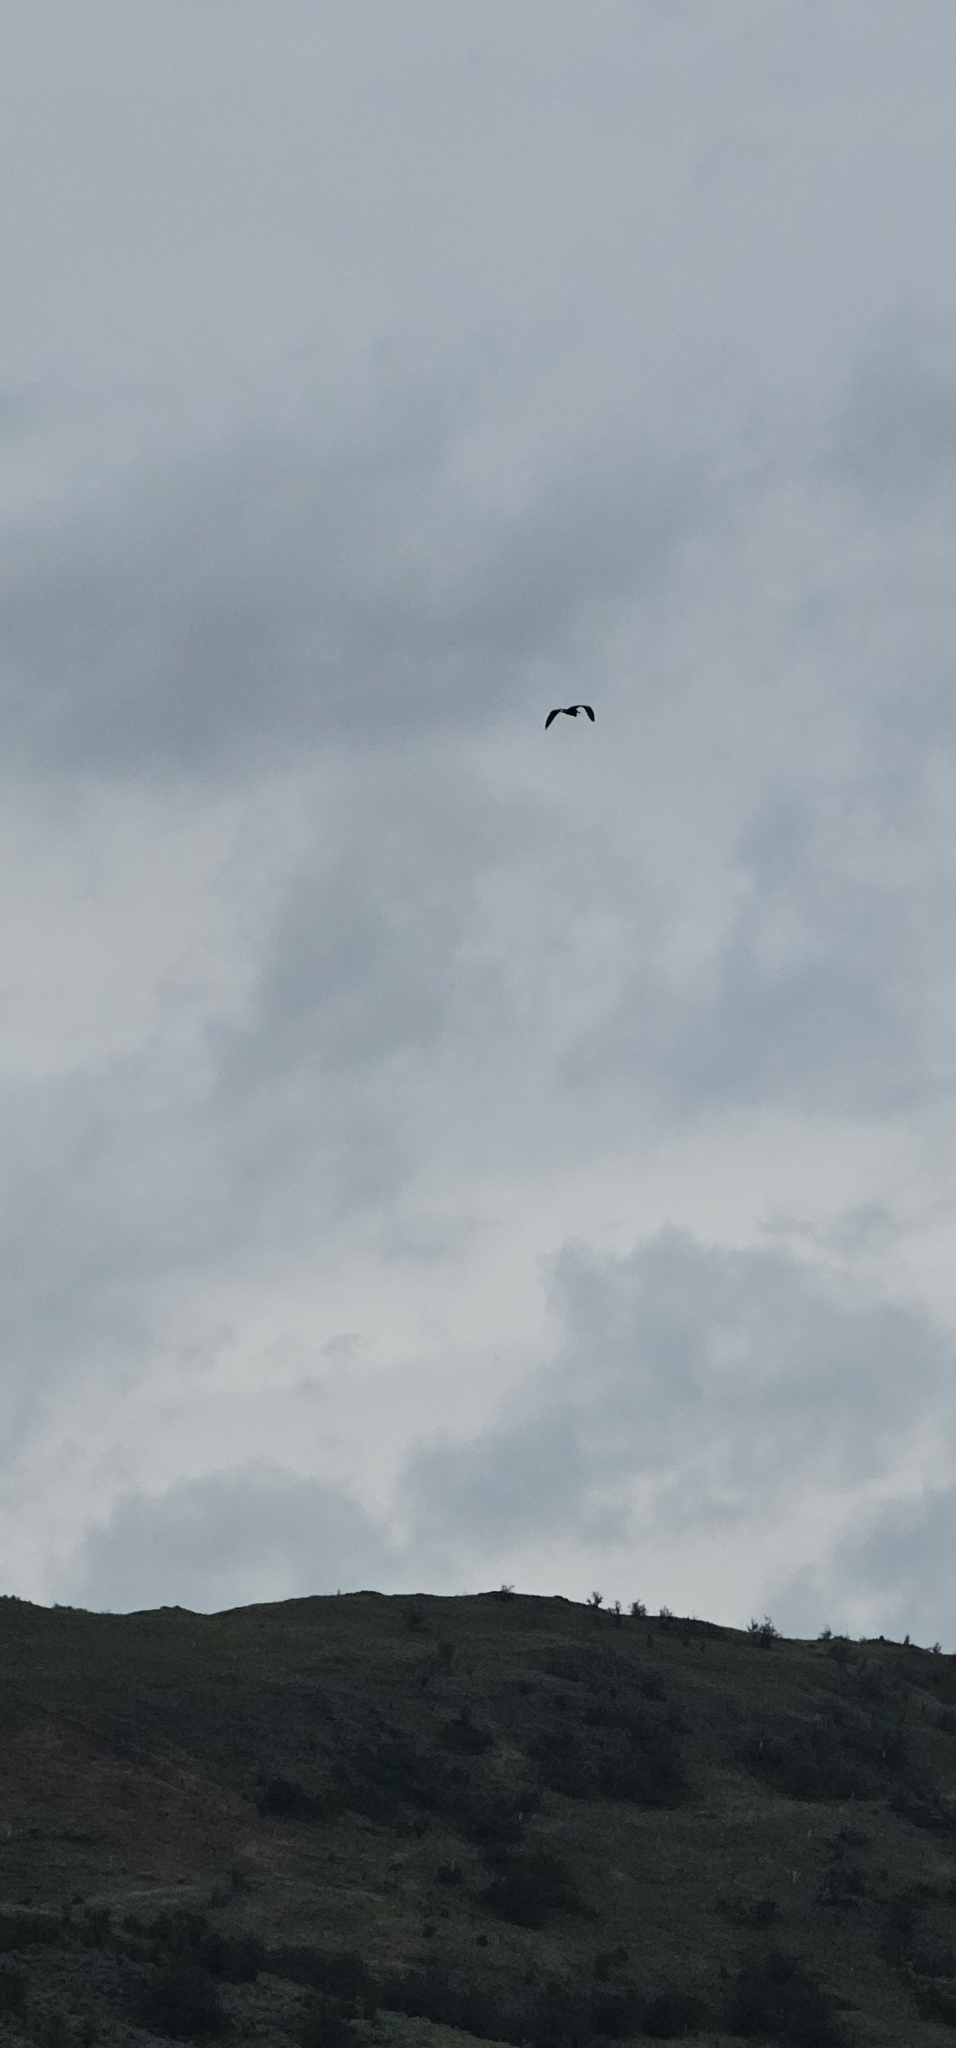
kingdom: Animalia
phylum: Chordata
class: Aves
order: Pelecaniformes
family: Ardeidae
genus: Ardea
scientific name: Ardea herodias
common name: Great blue heron
